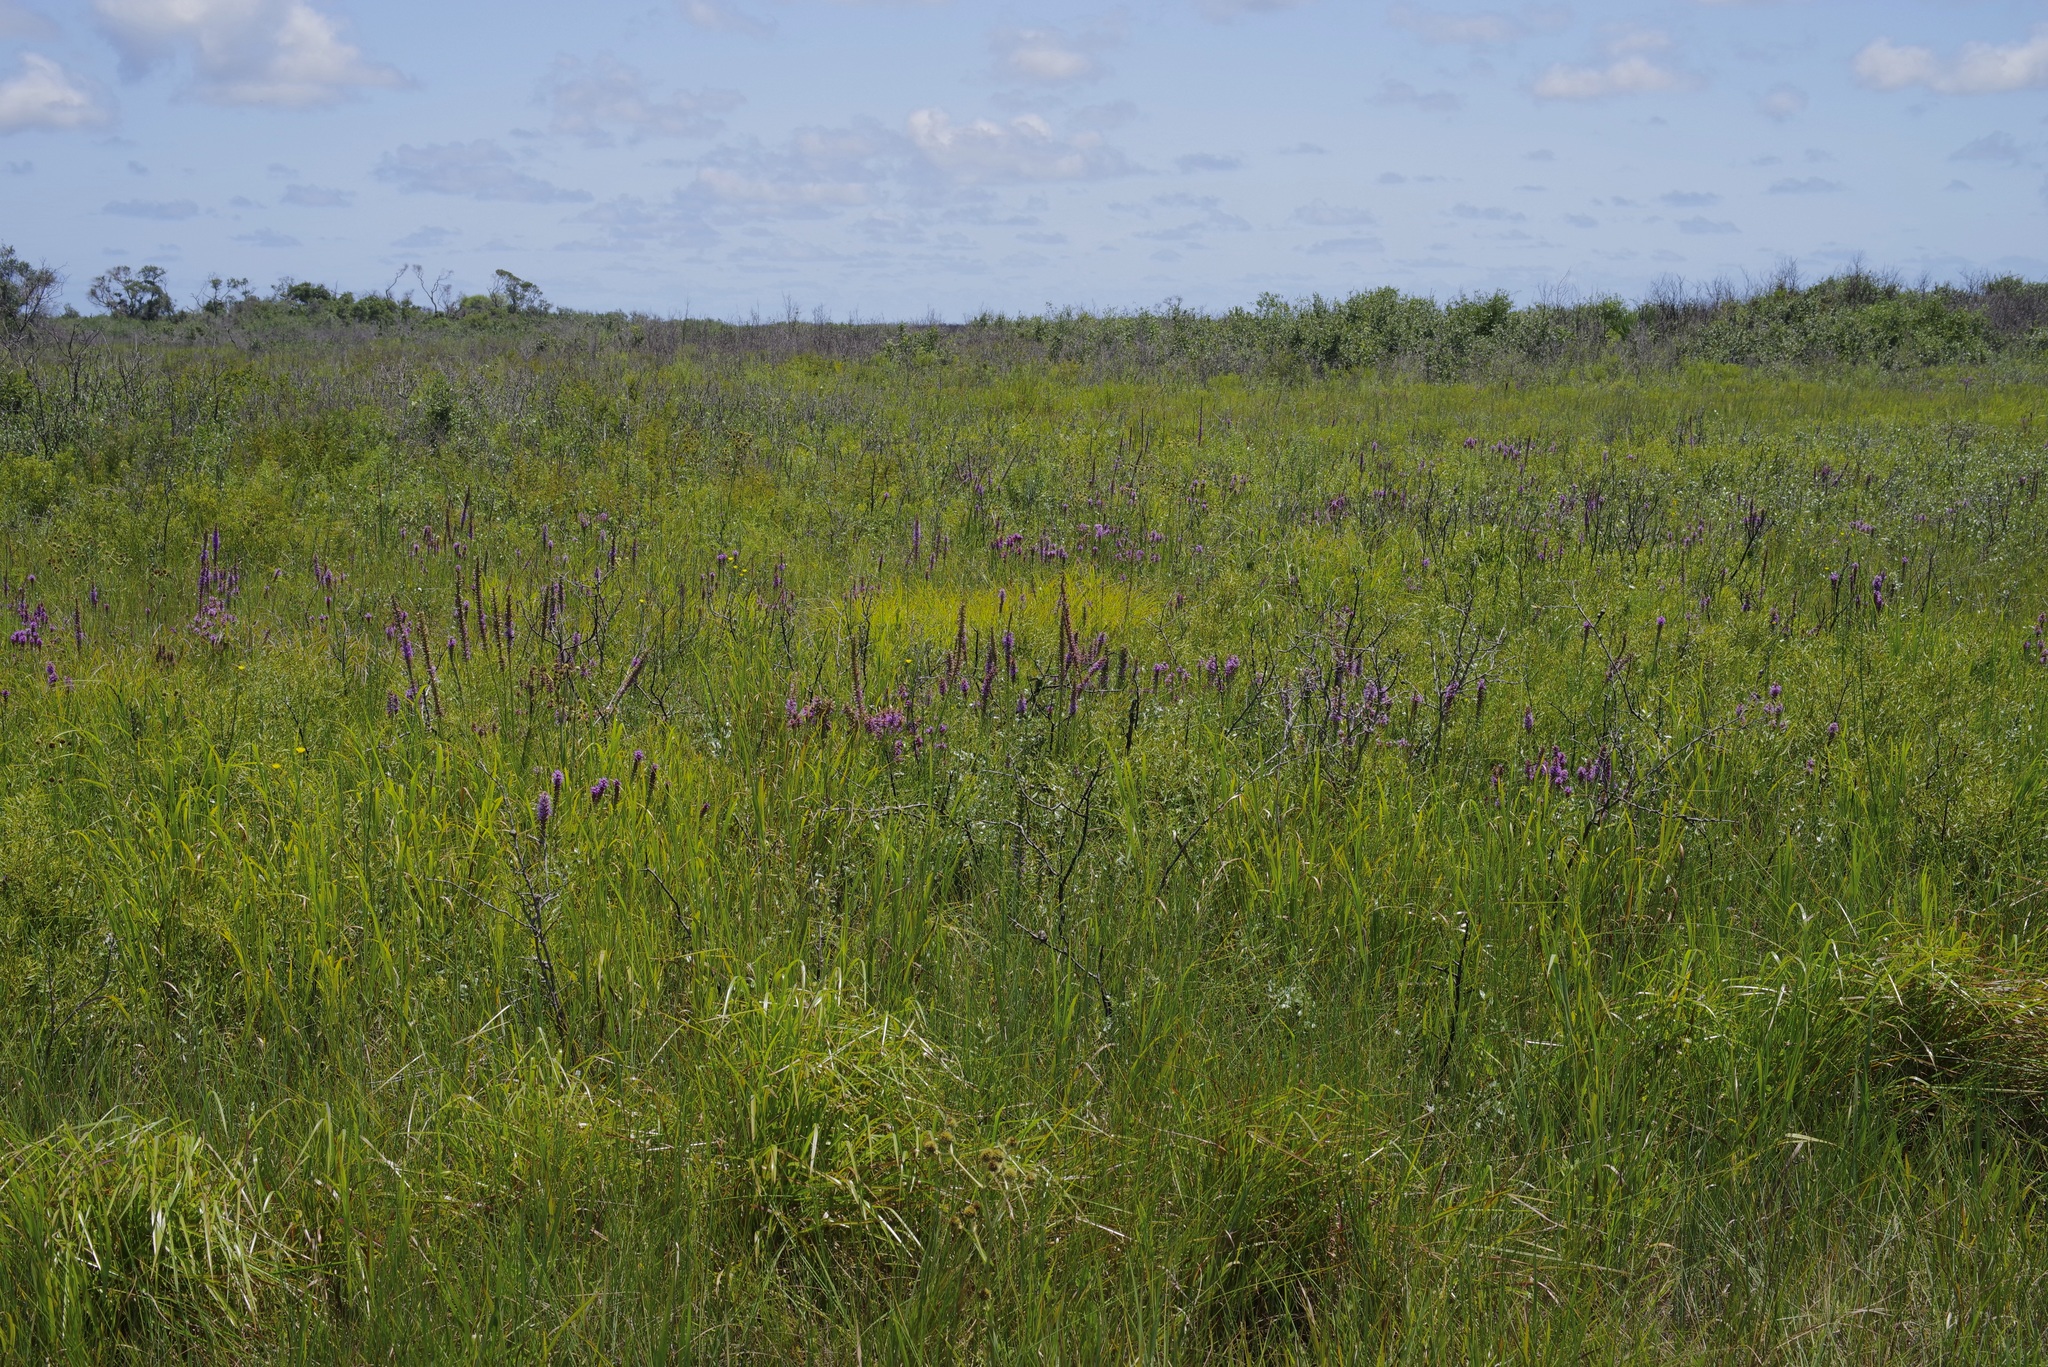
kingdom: Plantae
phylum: Tracheophyta
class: Magnoliopsida
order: Asterales
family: Asteraceae
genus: Liatris
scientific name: Liatris pycnostachya
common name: Cattail gayfeather
